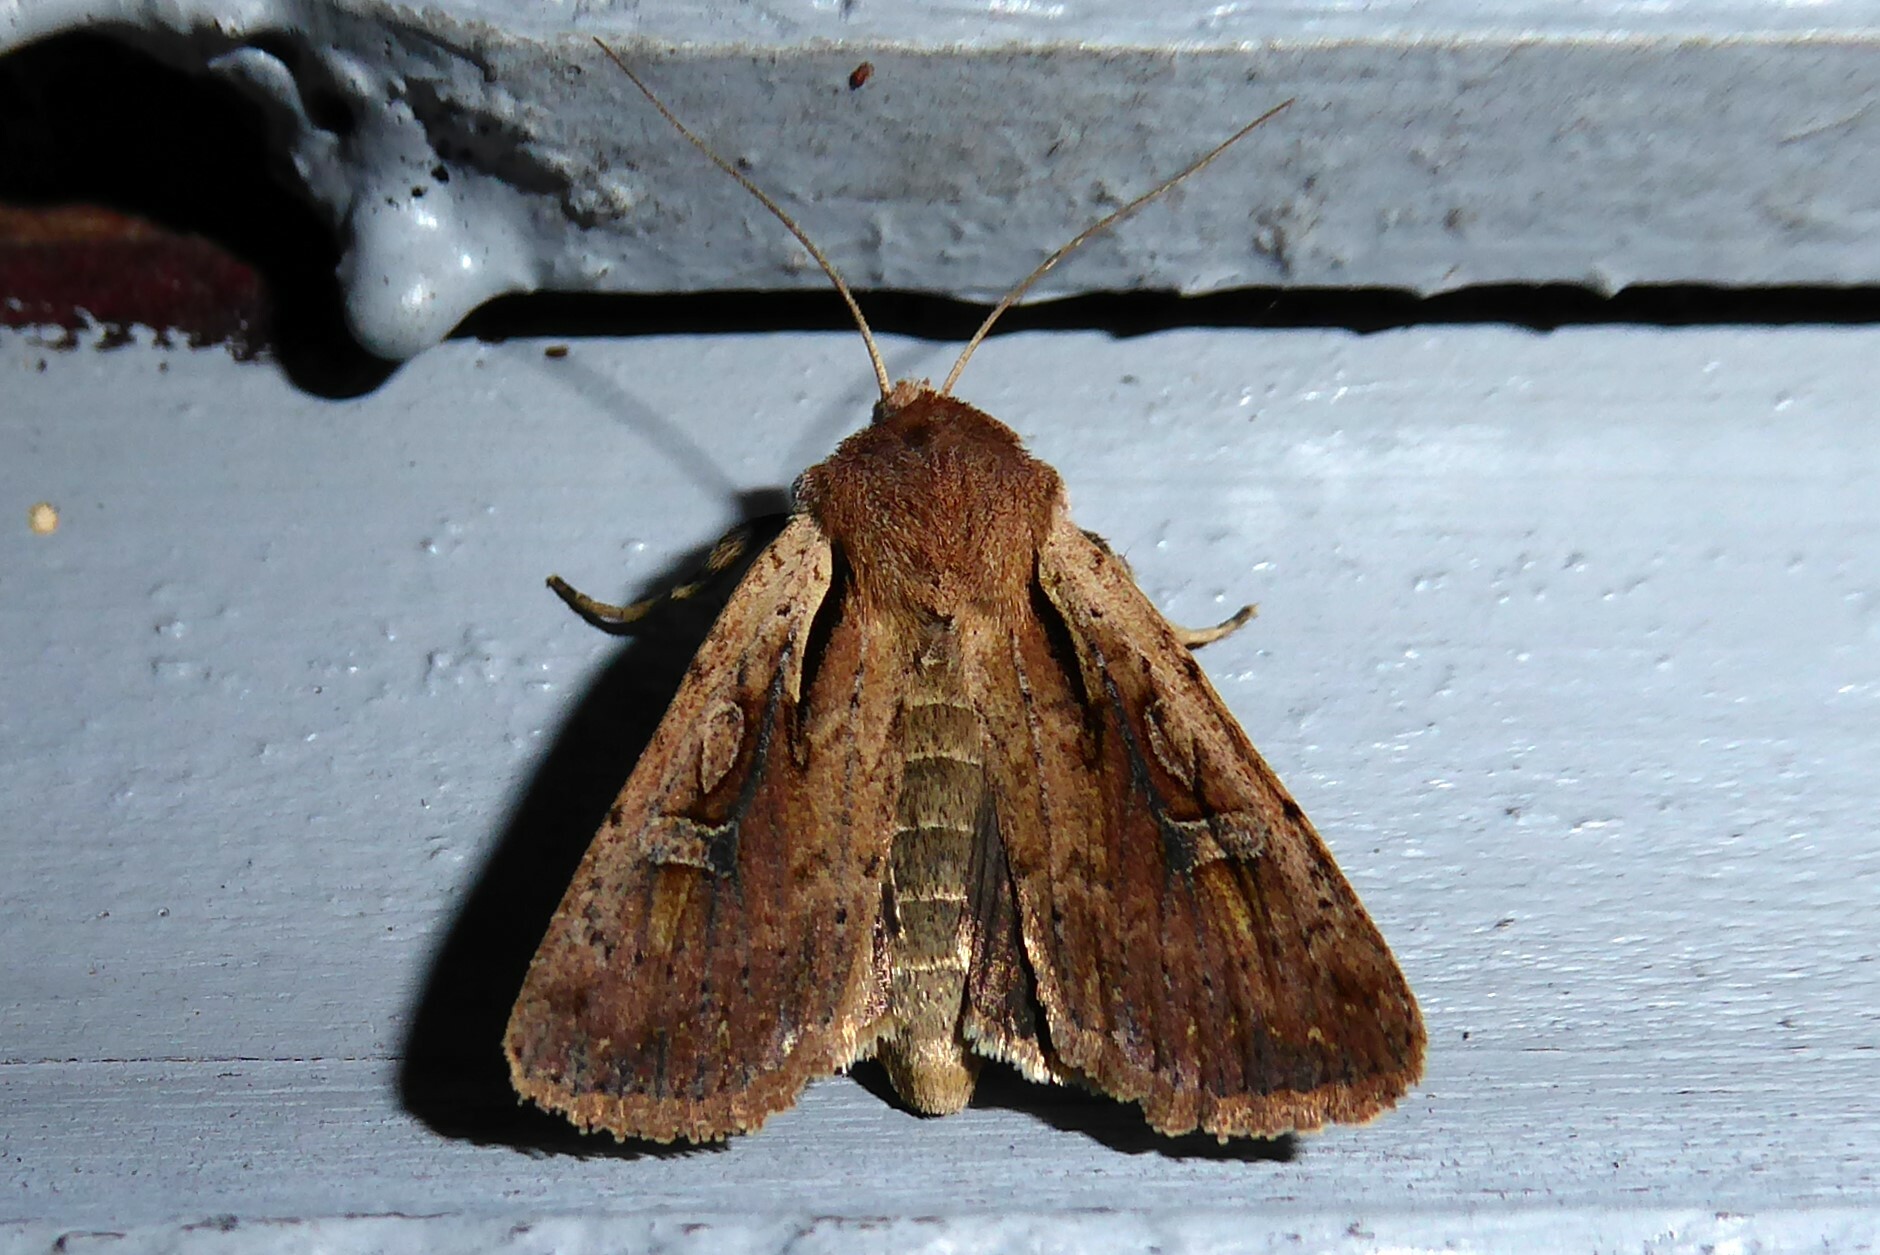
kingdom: Animalia
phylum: Arthropoda
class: Insecta
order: Lepidoptera
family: Noctuidae
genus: Ichneutica
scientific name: Ichneutica atristriga
